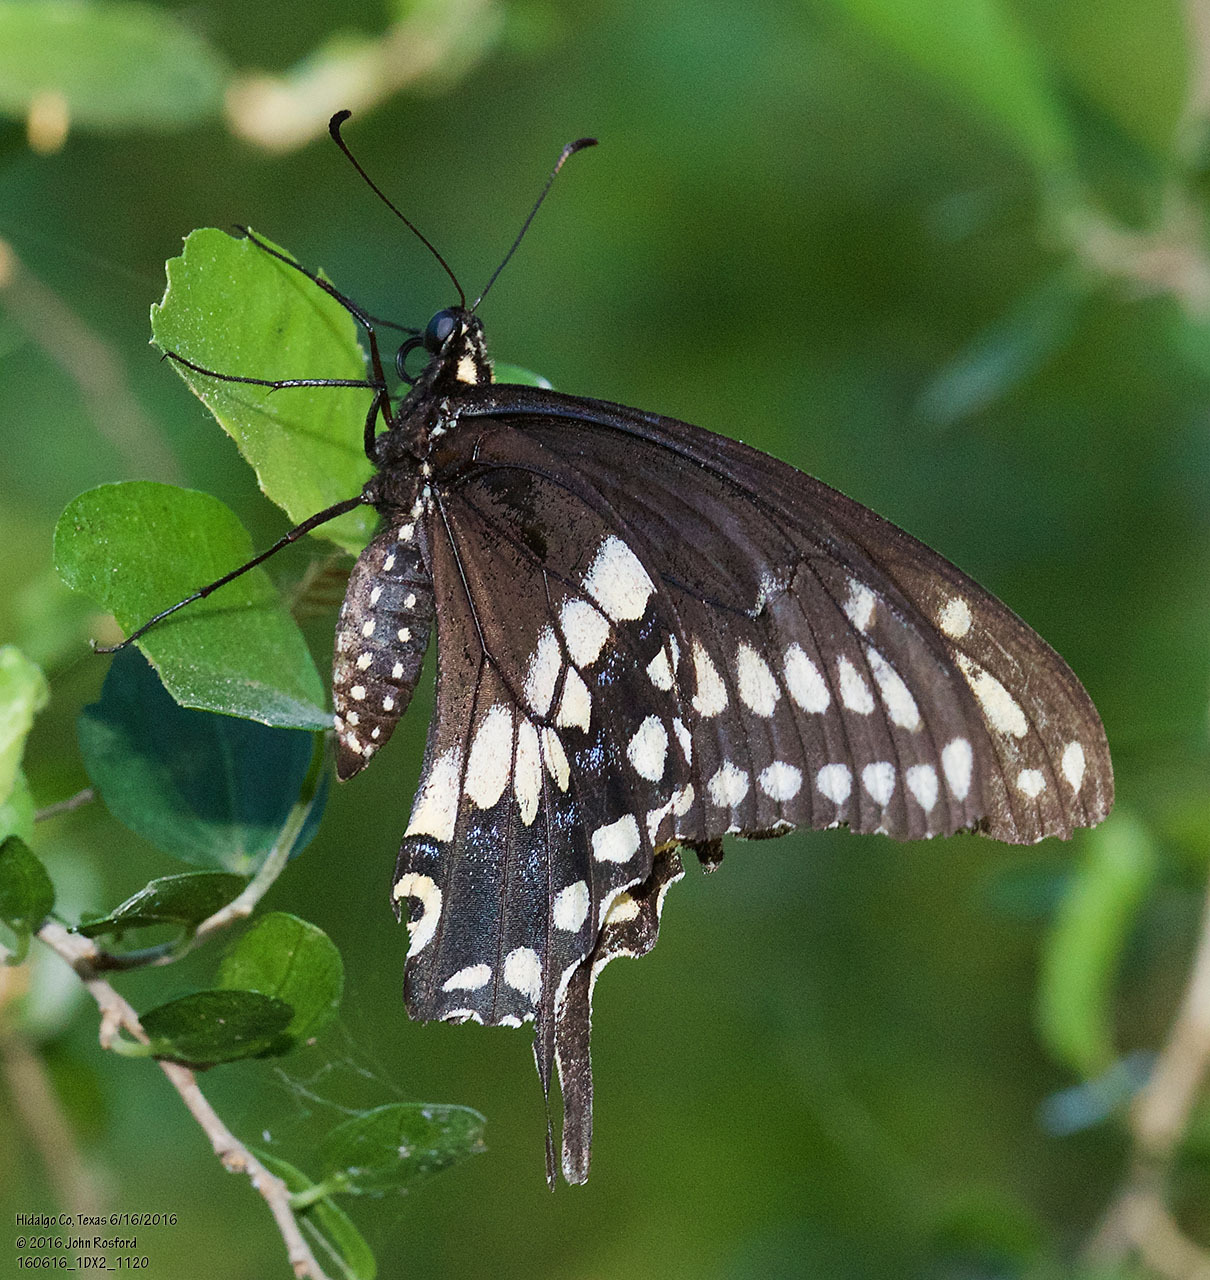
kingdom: Animalia
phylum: Arthropoda
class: Insecta
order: Lepidoptera
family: Papilionidae
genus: Papilio
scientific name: Papilio polyxenes
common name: Black swallowtail
